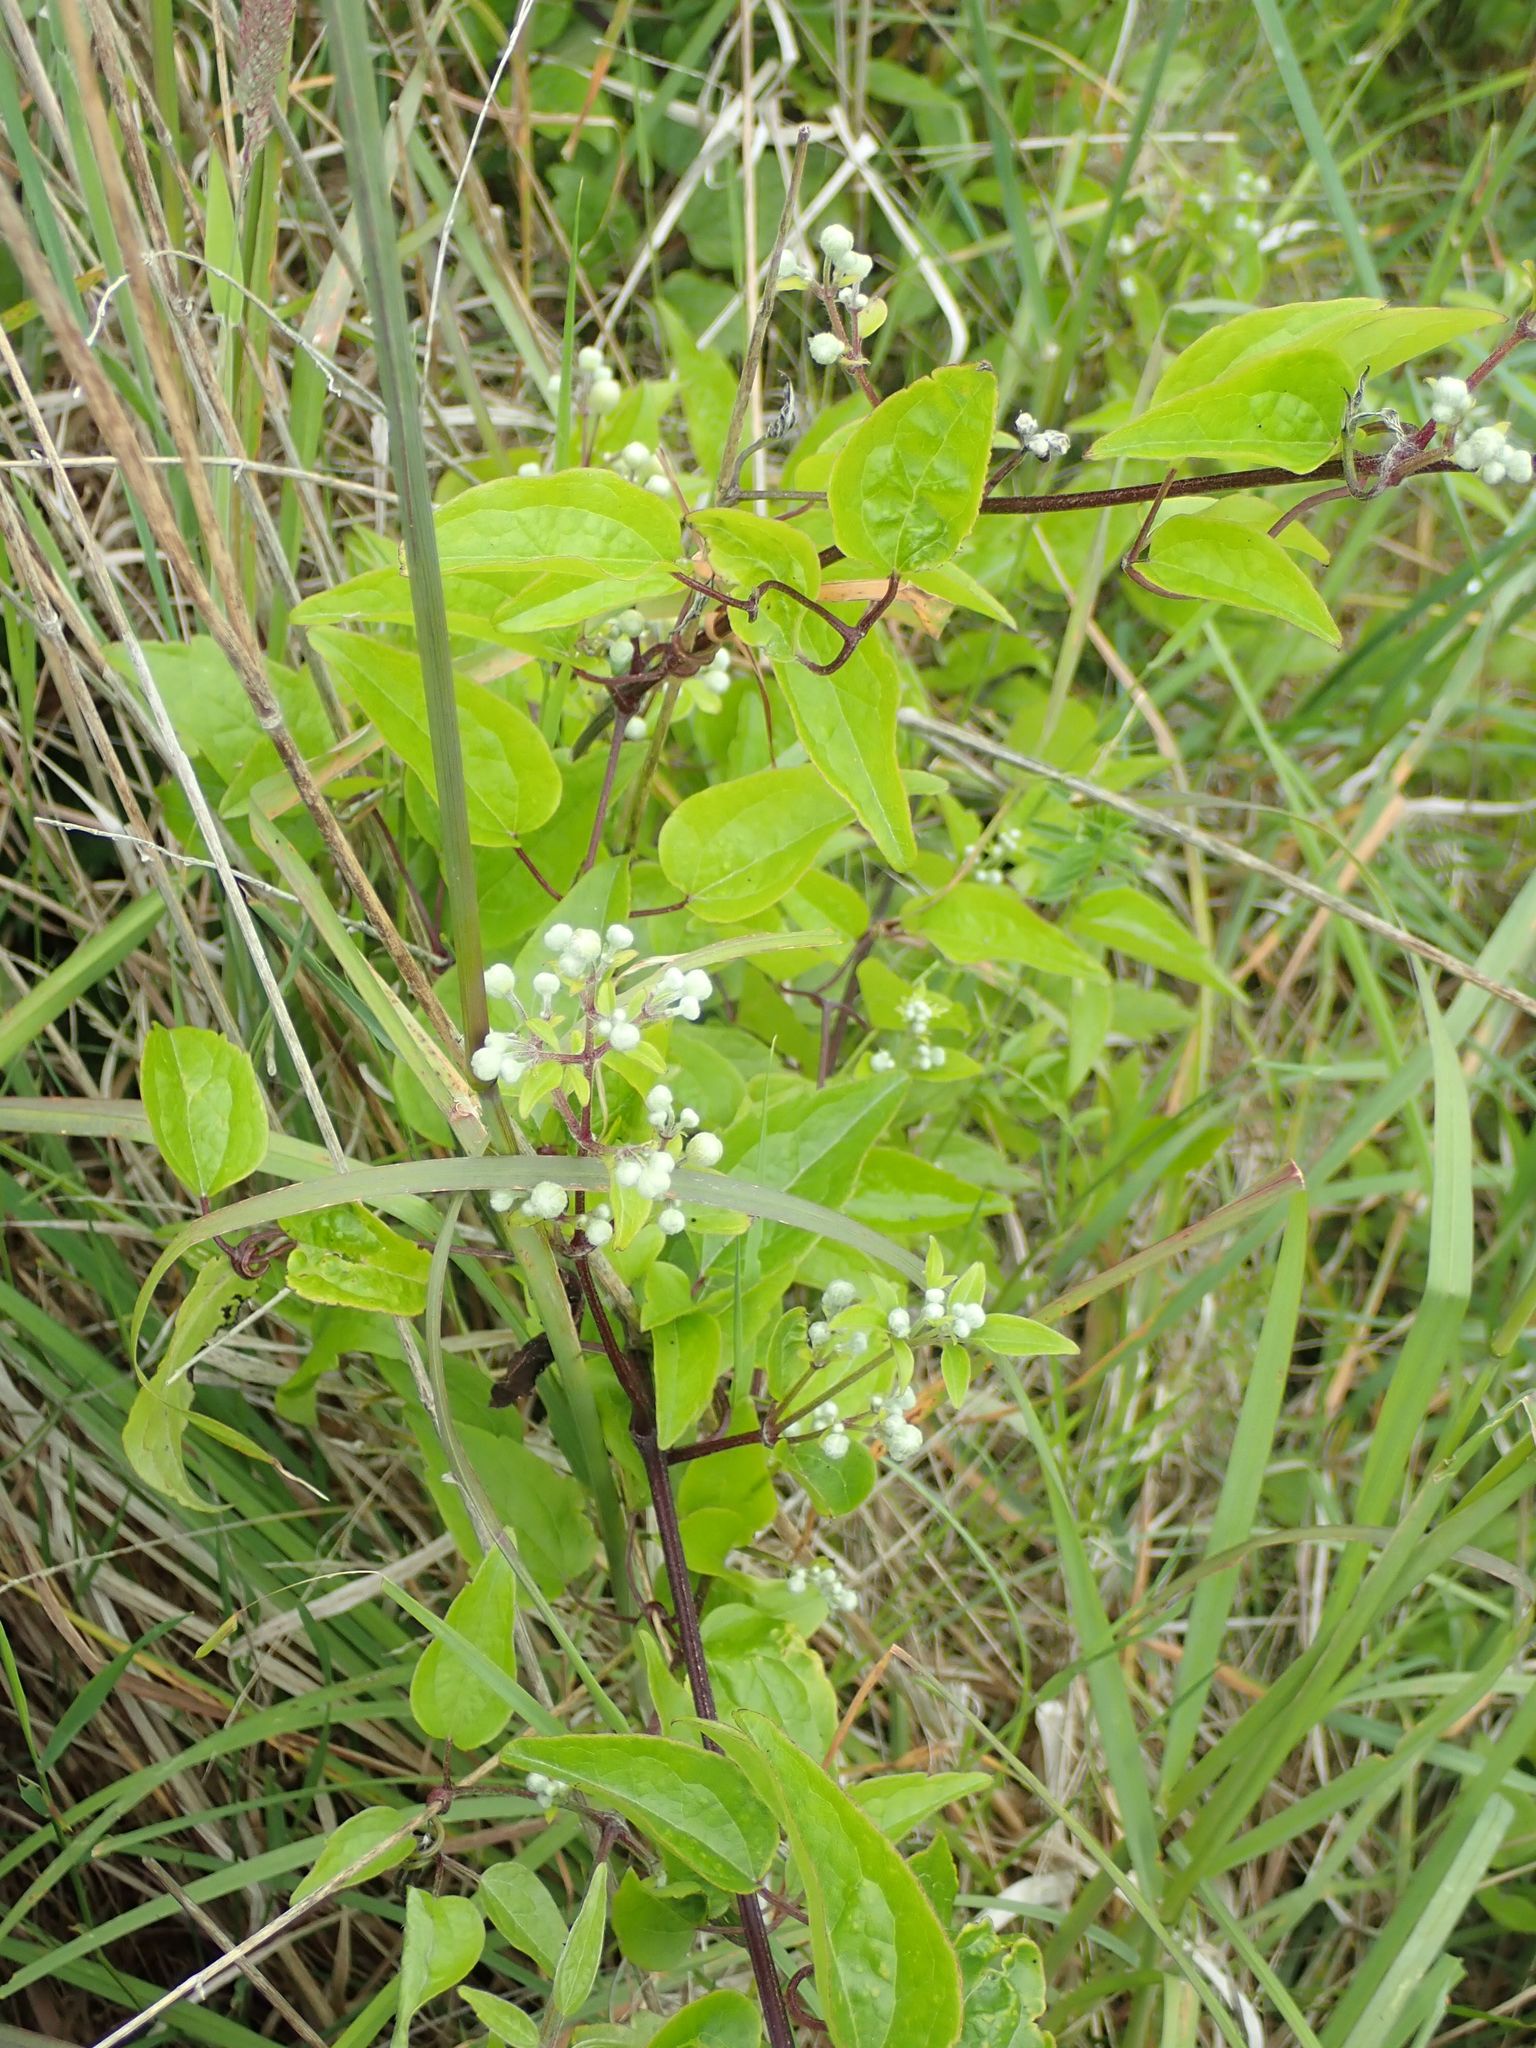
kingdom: Plantae
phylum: Tracheophyta
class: Magnoliopsida
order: Ranunculales
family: Ranunculaceae
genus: Clematis
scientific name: Clematis vitalba
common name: Evergreen clematis
